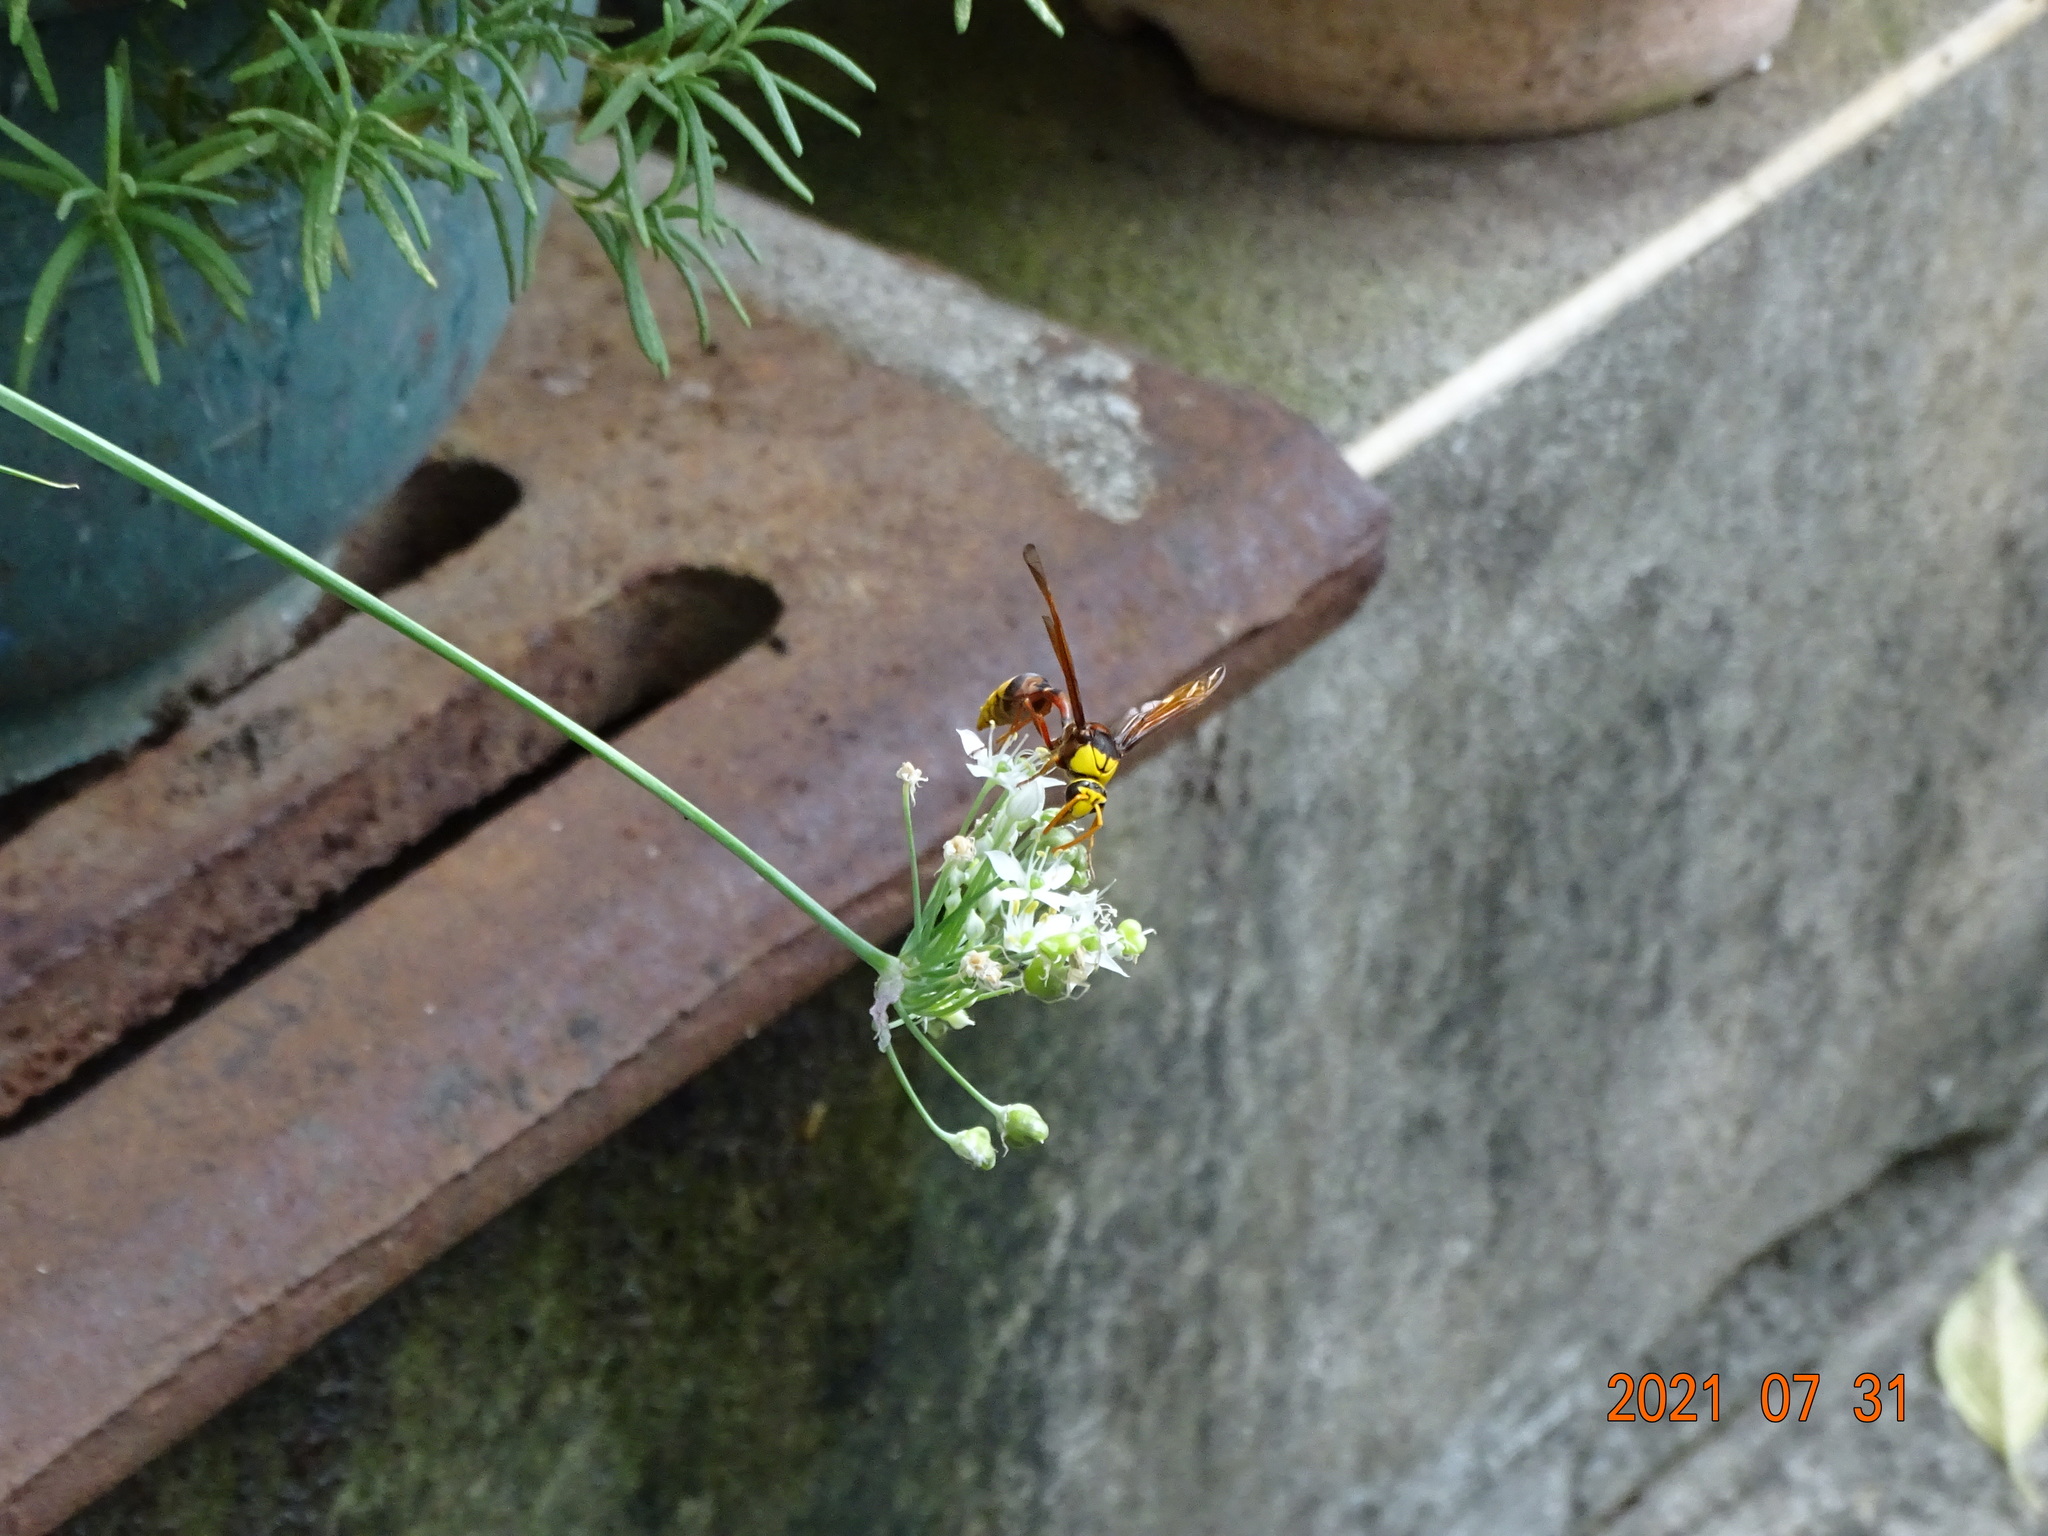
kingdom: Animalia
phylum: Arthropoda
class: Insecta
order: Hymenoptera
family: Eumenidae
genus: Delta
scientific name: Delta pyriforme
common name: Wasp
